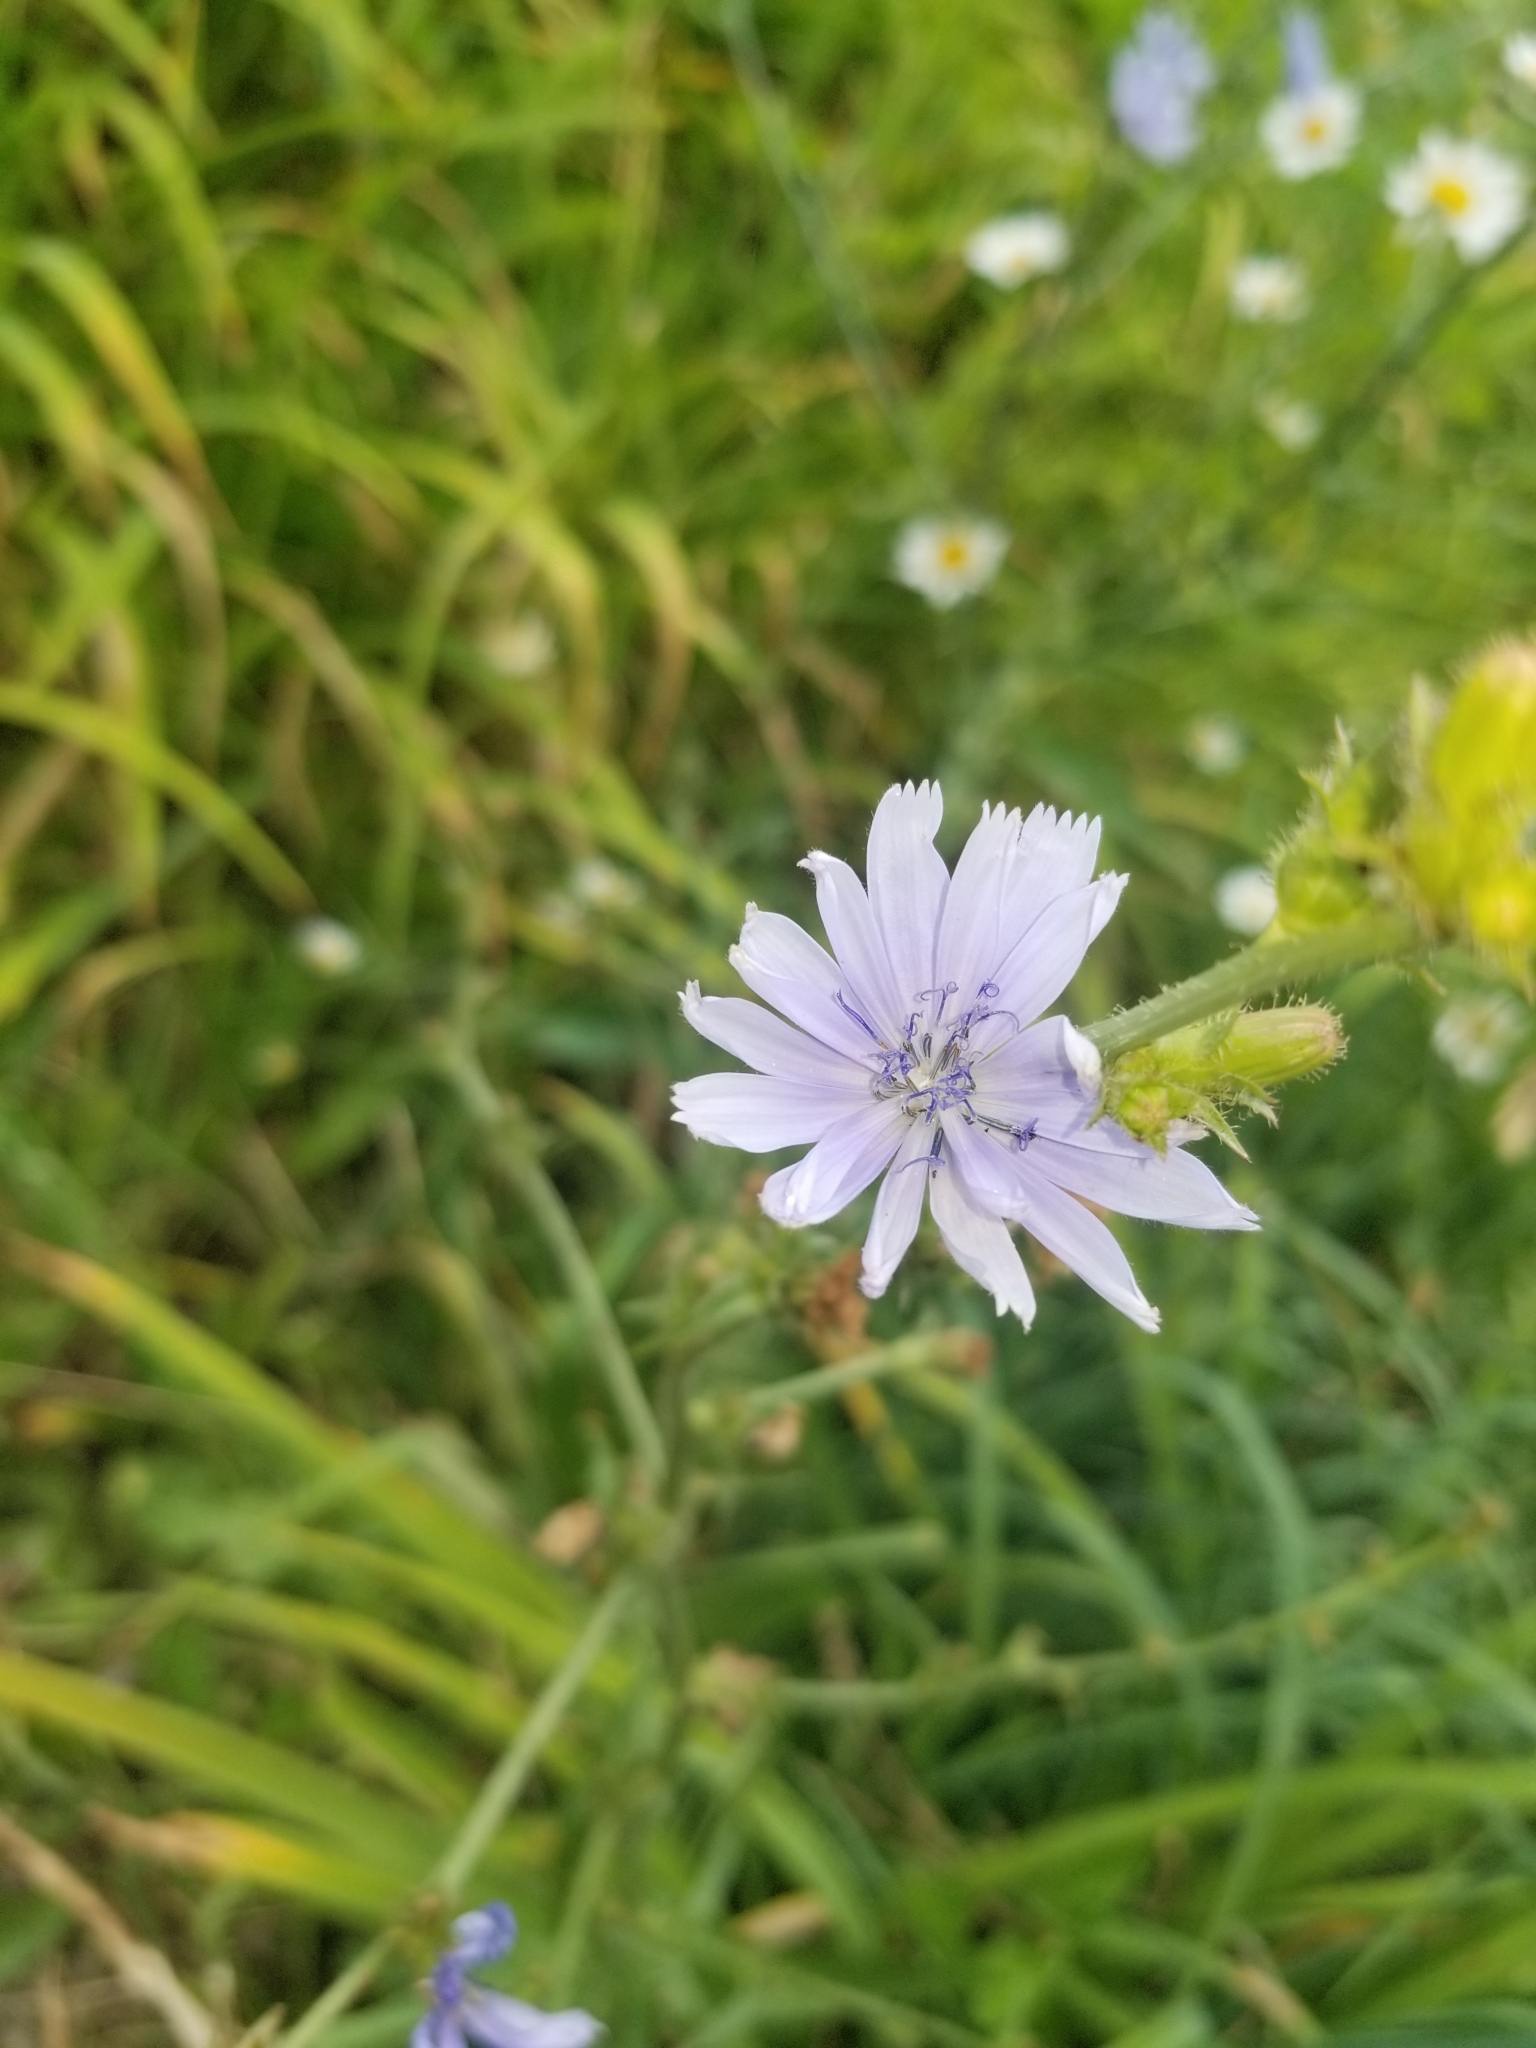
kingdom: Plantae
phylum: Tracheophyta
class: Magnoliopsida
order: Asterales
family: Asteraceae
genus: Cichorium
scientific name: Cichorium intybus
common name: Chicory
